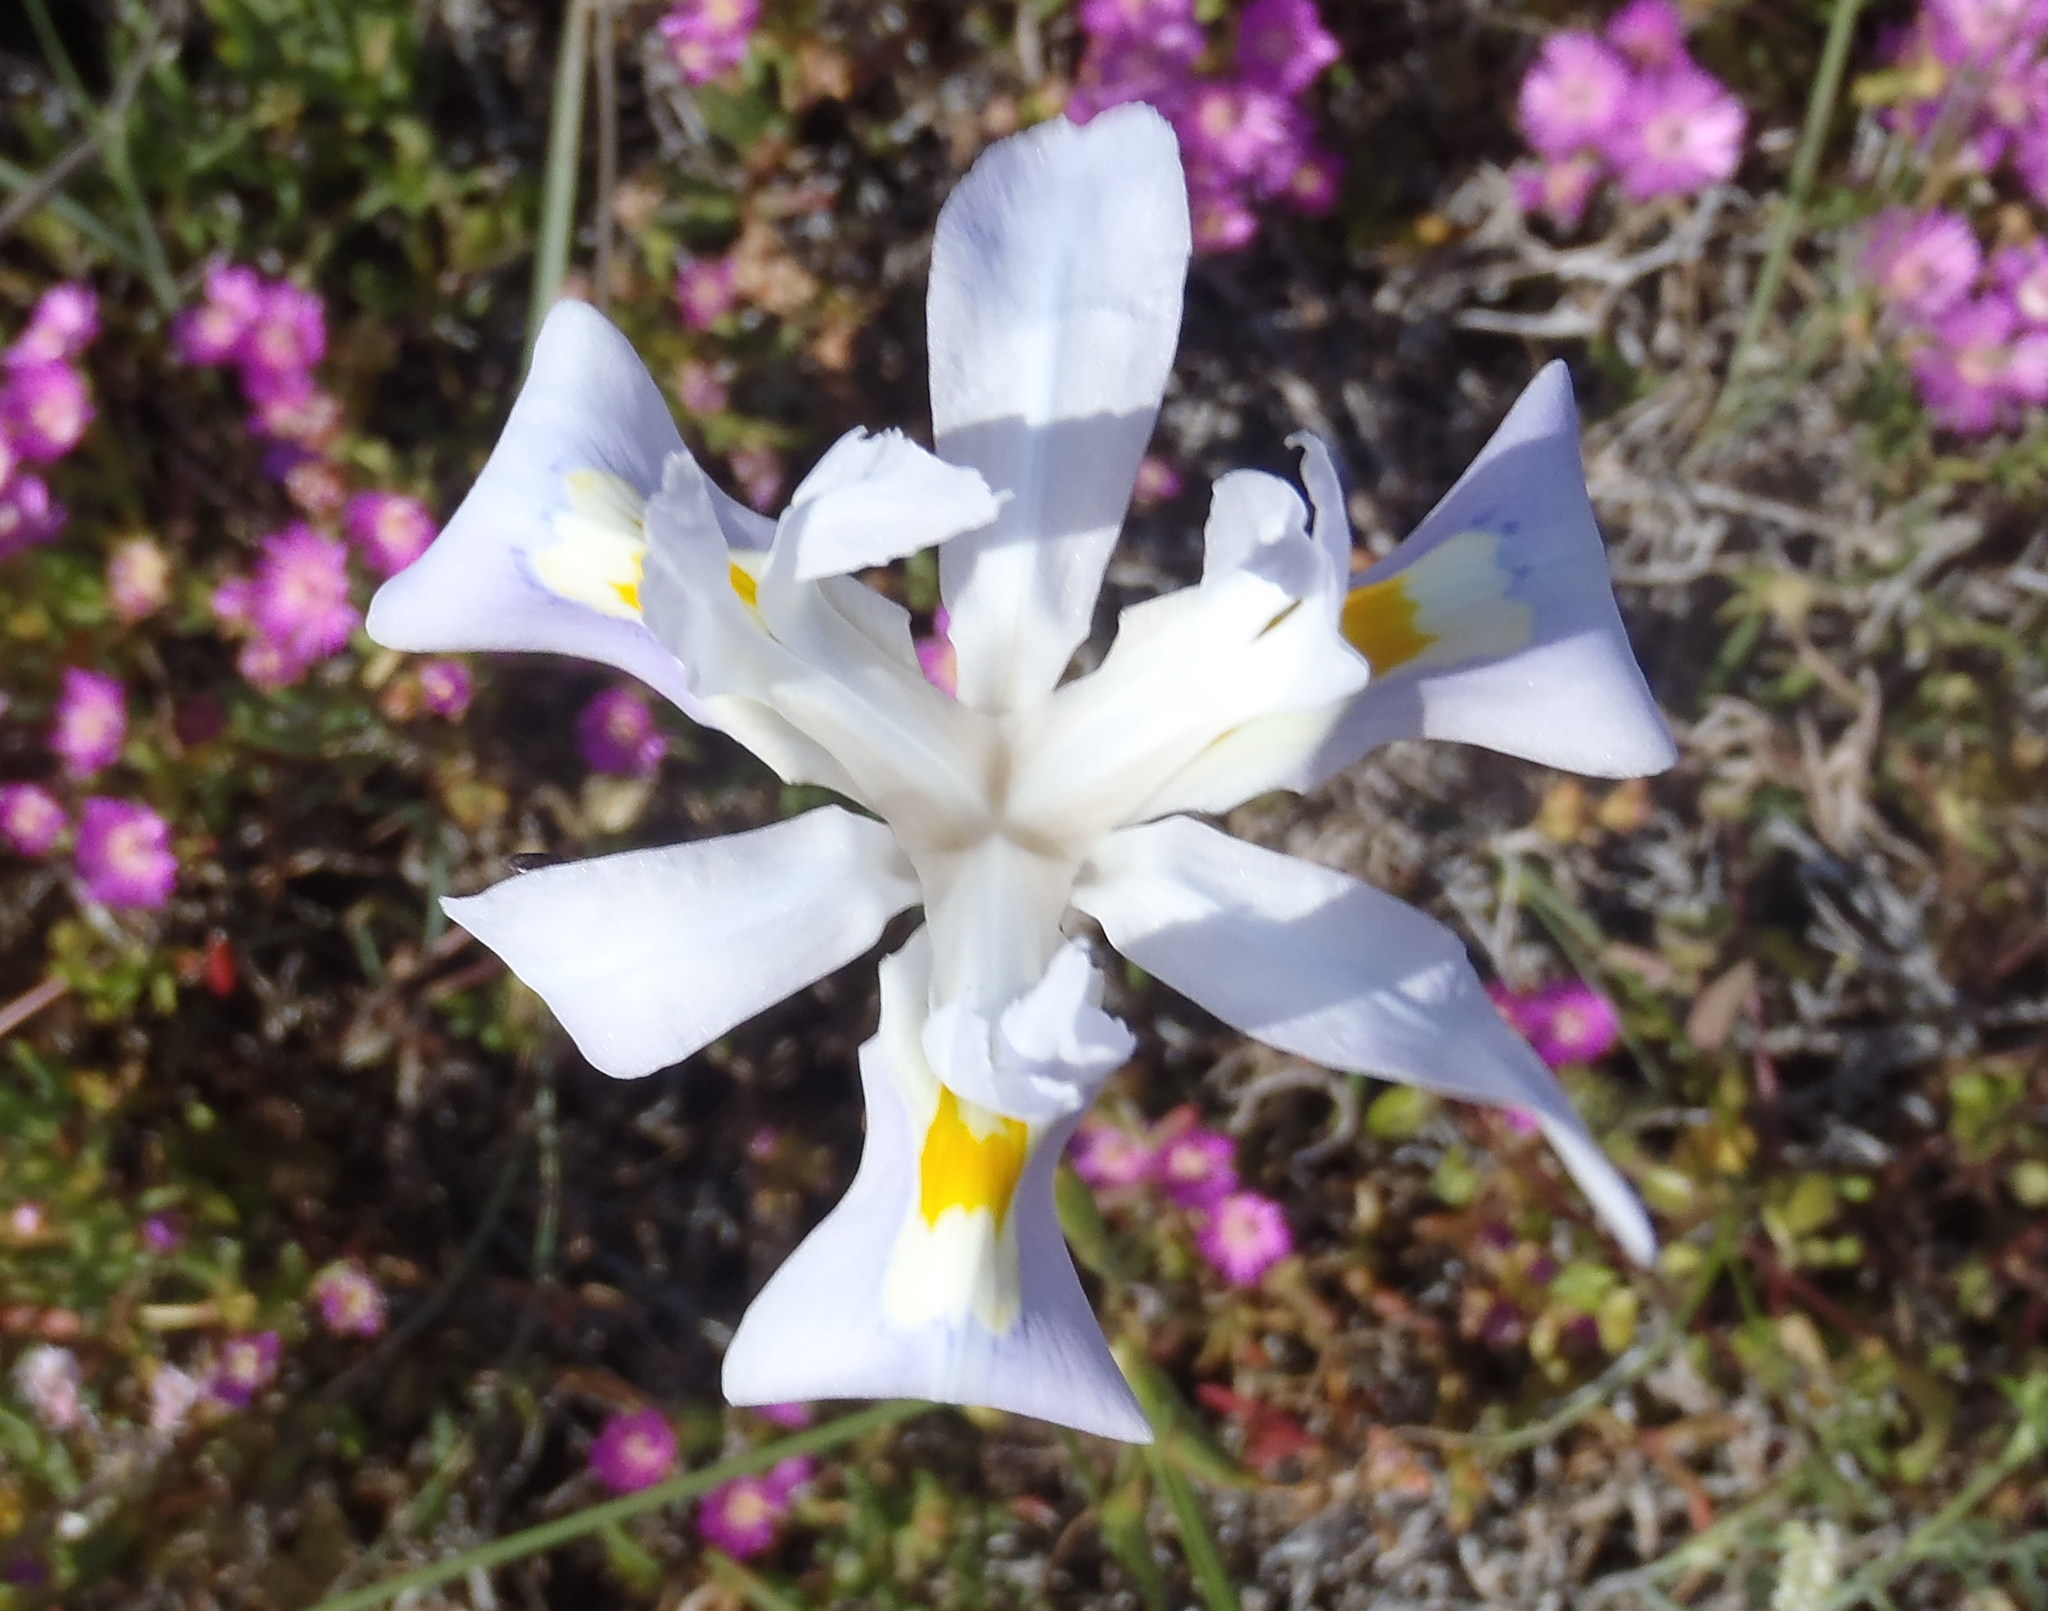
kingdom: Plantae
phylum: Tracheophyta
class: Liliopsida
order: Asparagales
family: Iridaceae
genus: Moraea
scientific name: Moraea fugax
